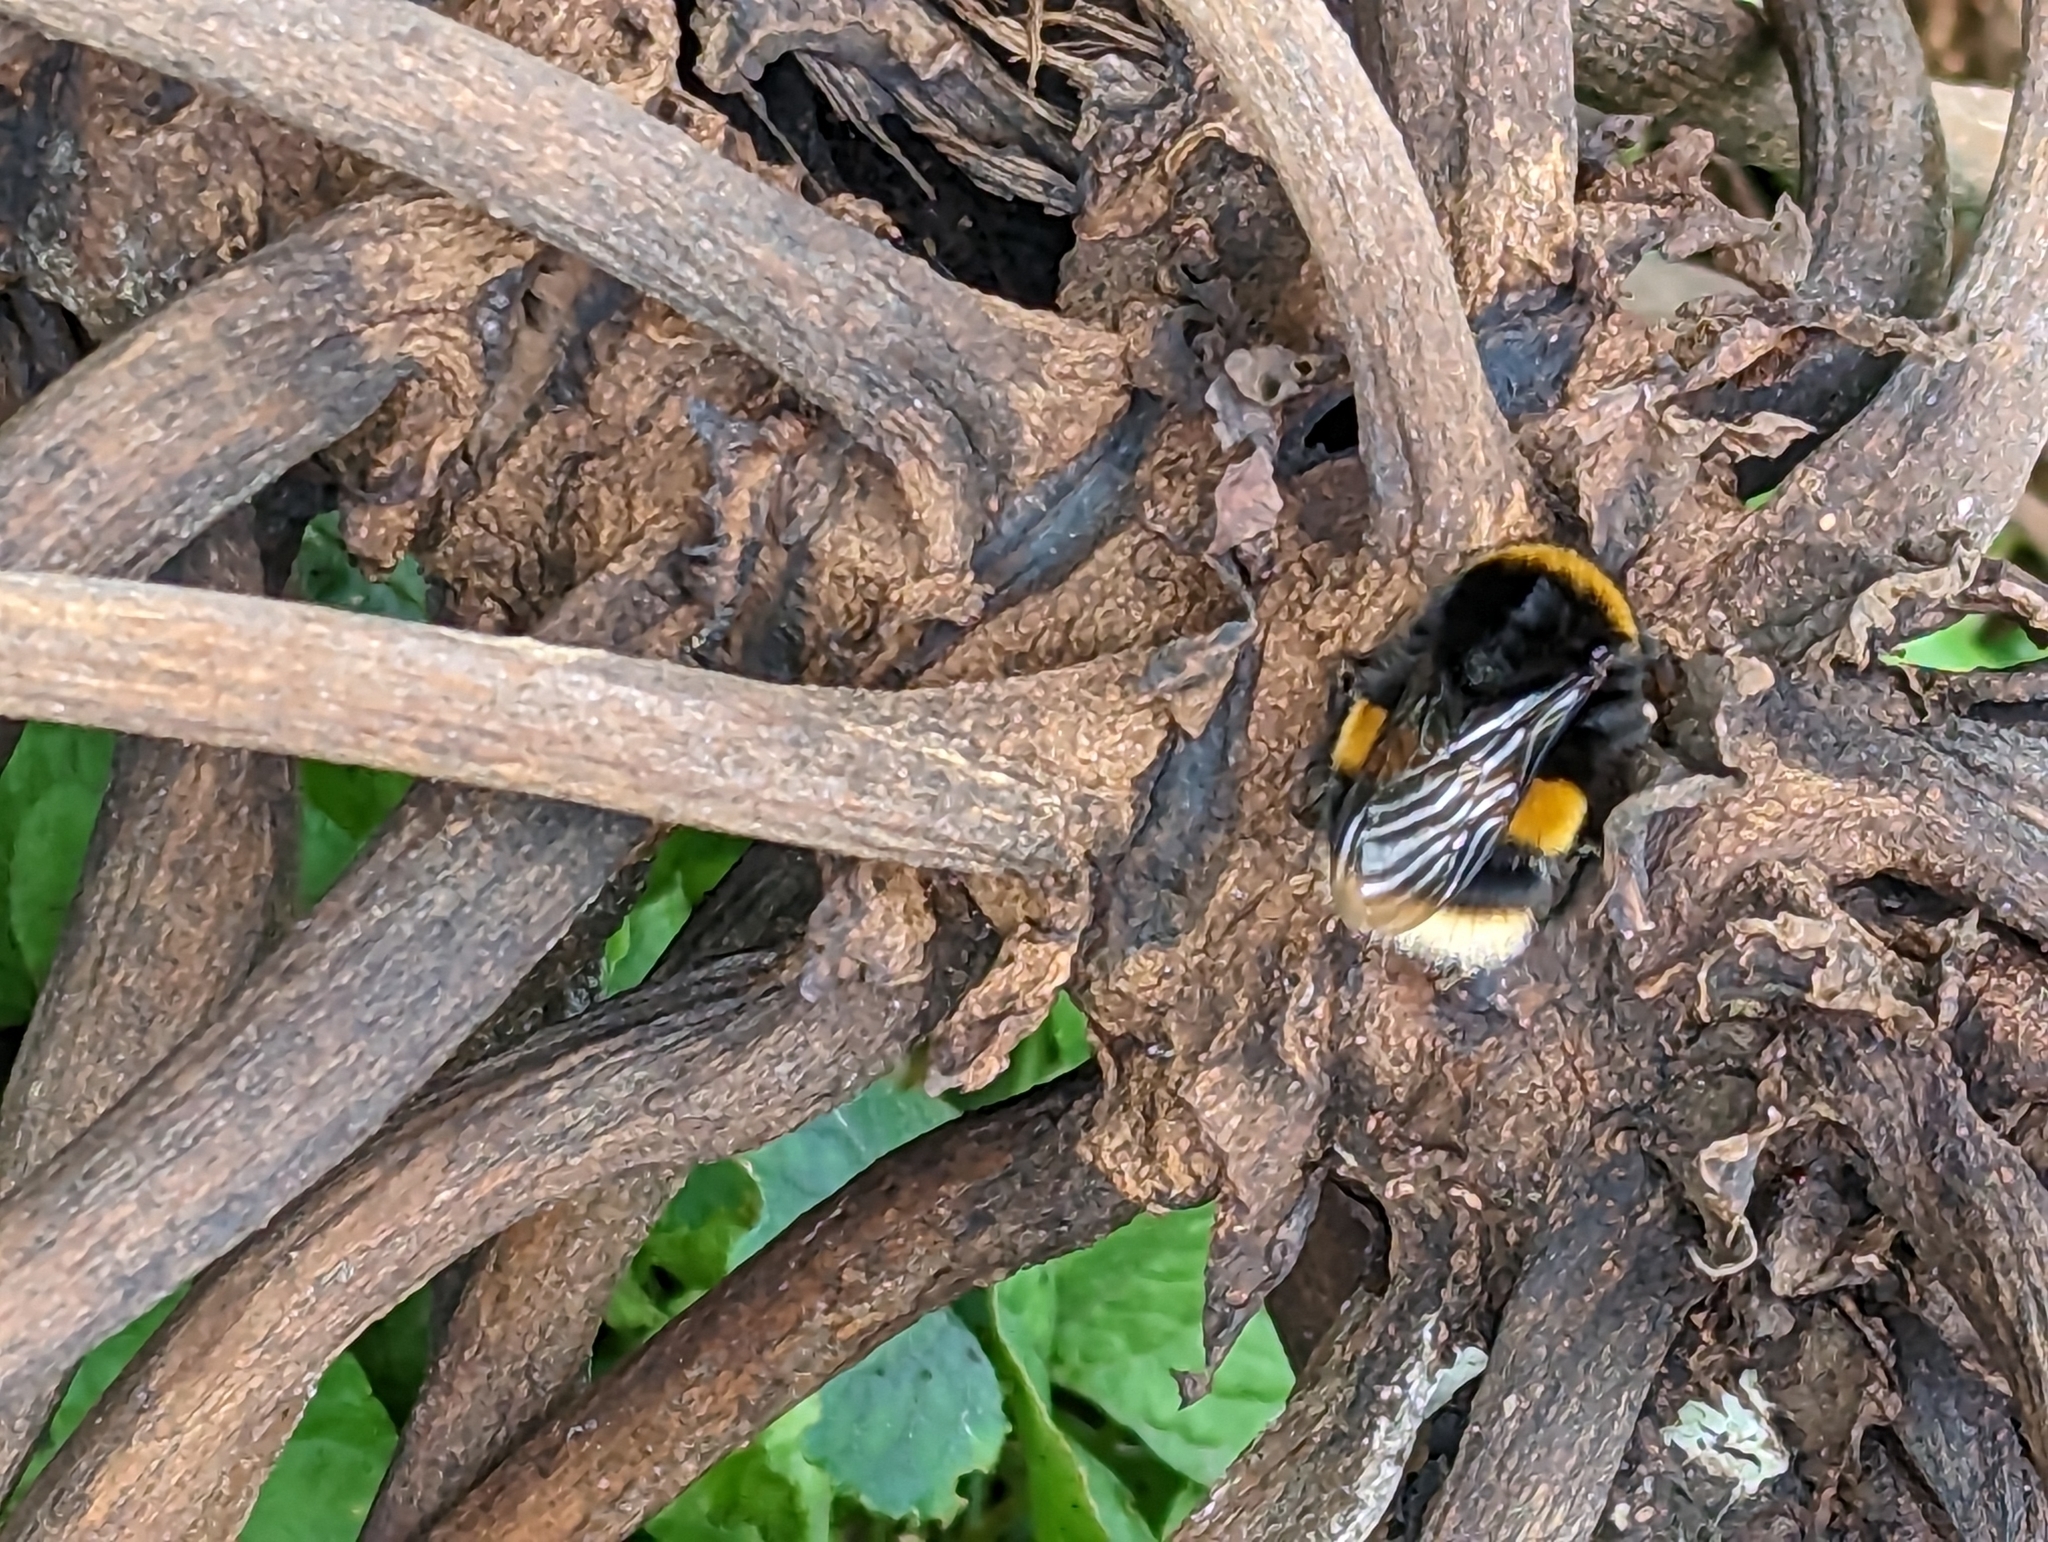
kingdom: Animalia
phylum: Arthropoda
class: Insecta
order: Hymenoptera
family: Apidae
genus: Bombus
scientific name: Bombus terrestris
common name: Buff-tailed bumblebee
